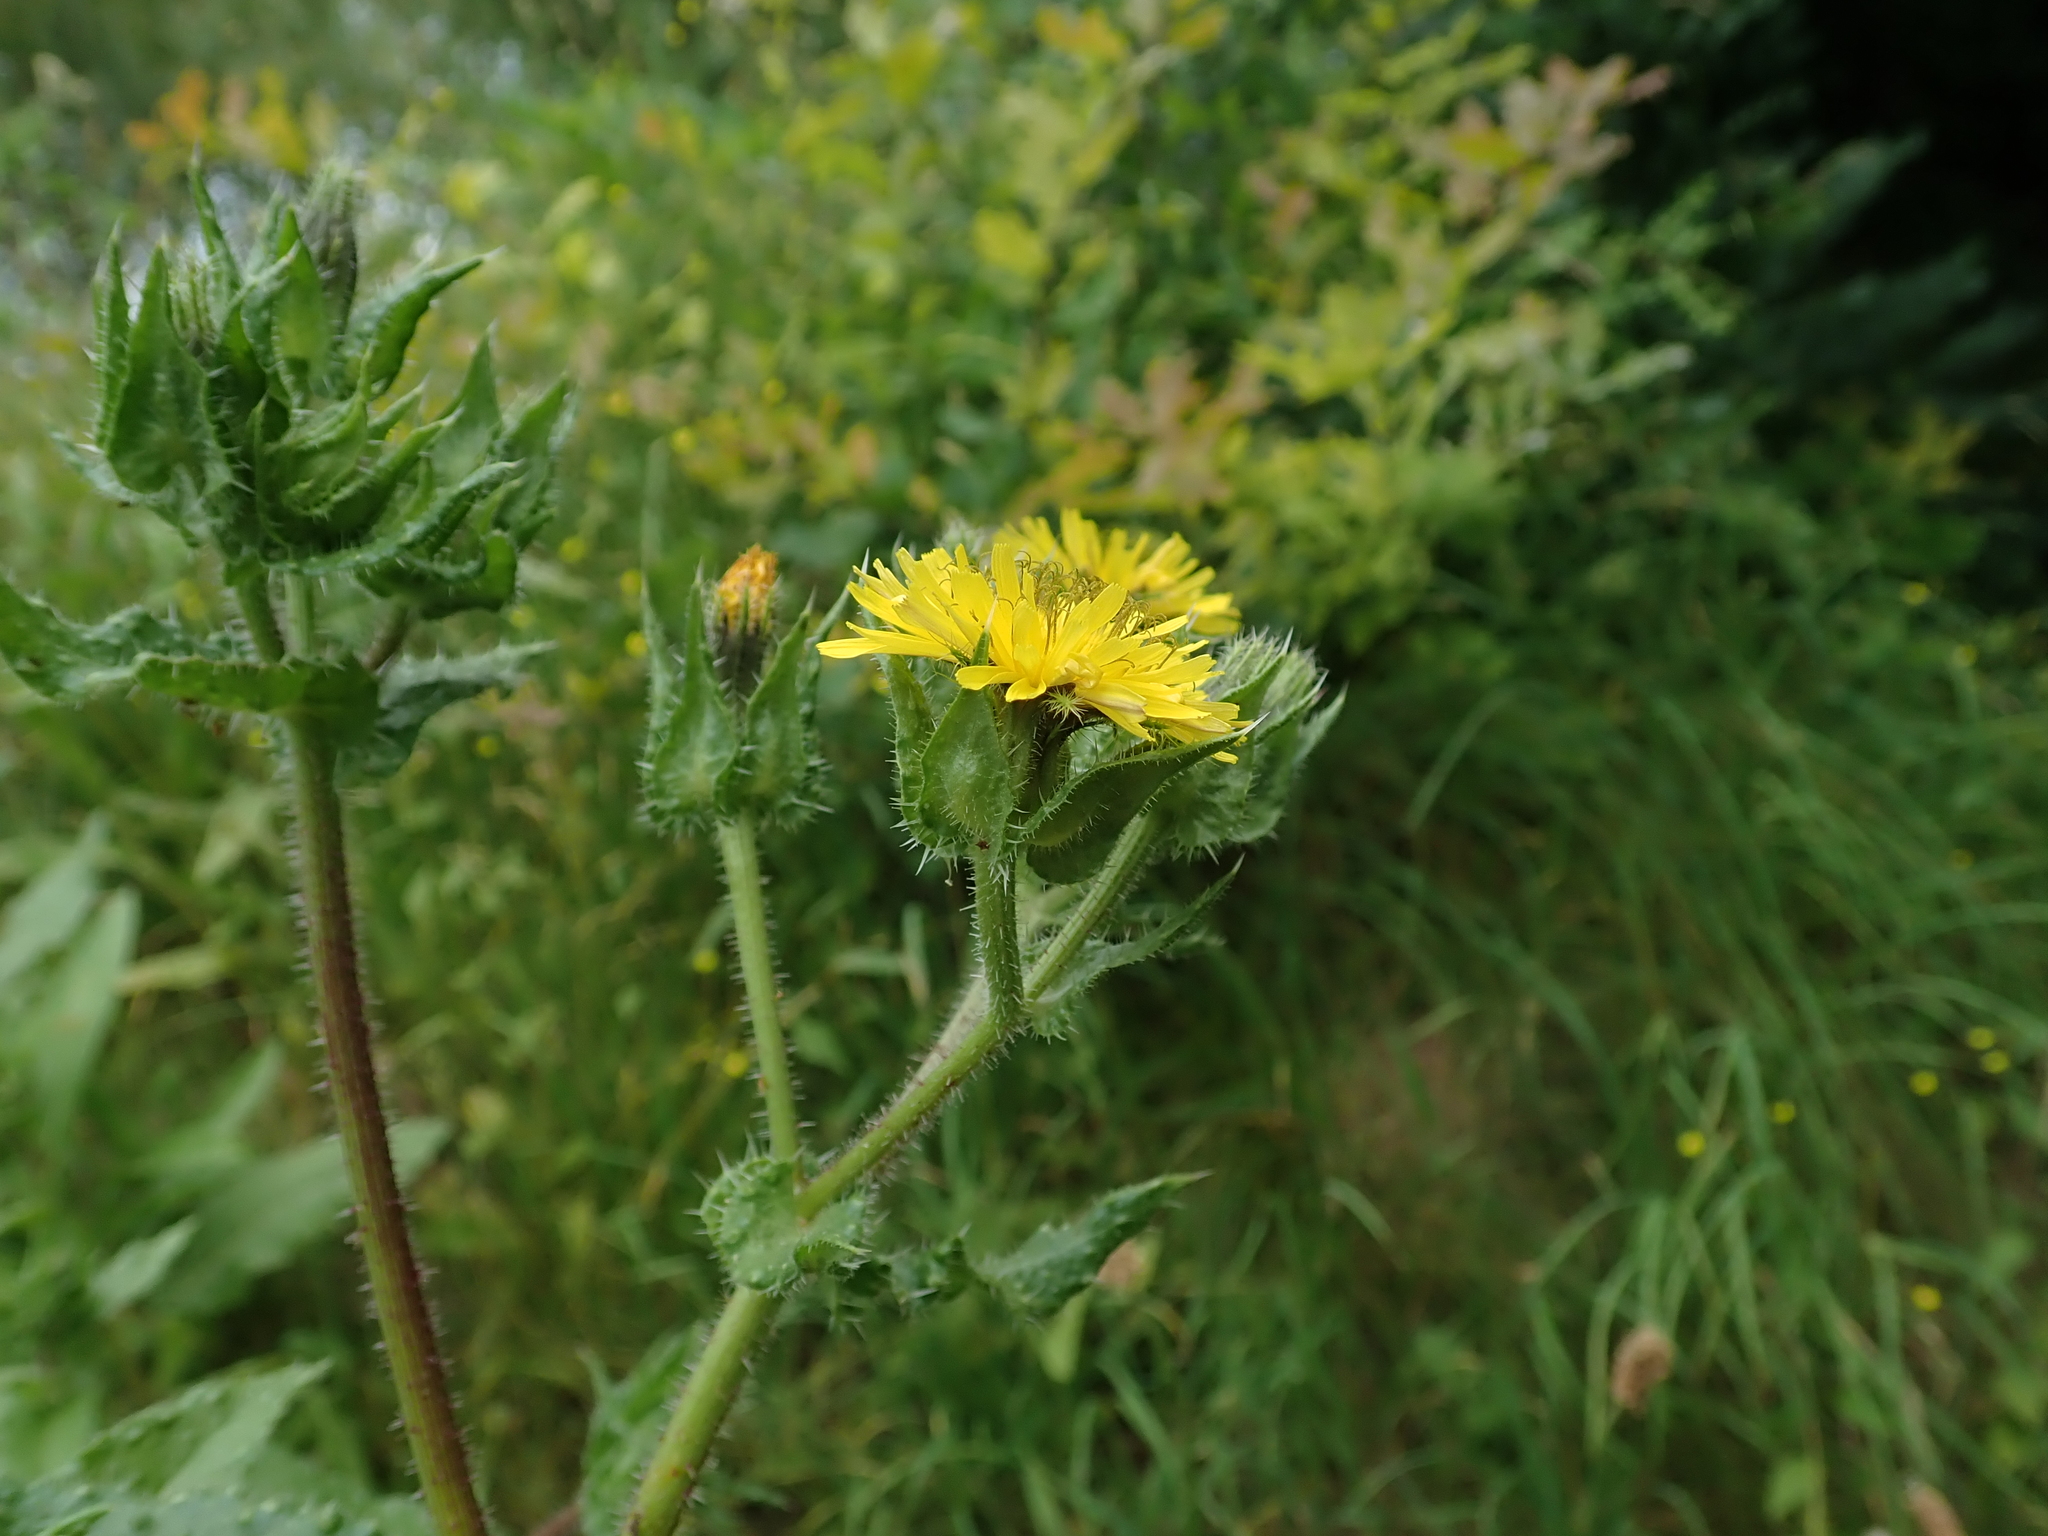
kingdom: Plantae
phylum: Tracheophyta
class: Magnoliopsida
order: Asterales
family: Asteraceae
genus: Helminthotheca
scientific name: Helminthotheca echioides
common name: Ox-tongue
